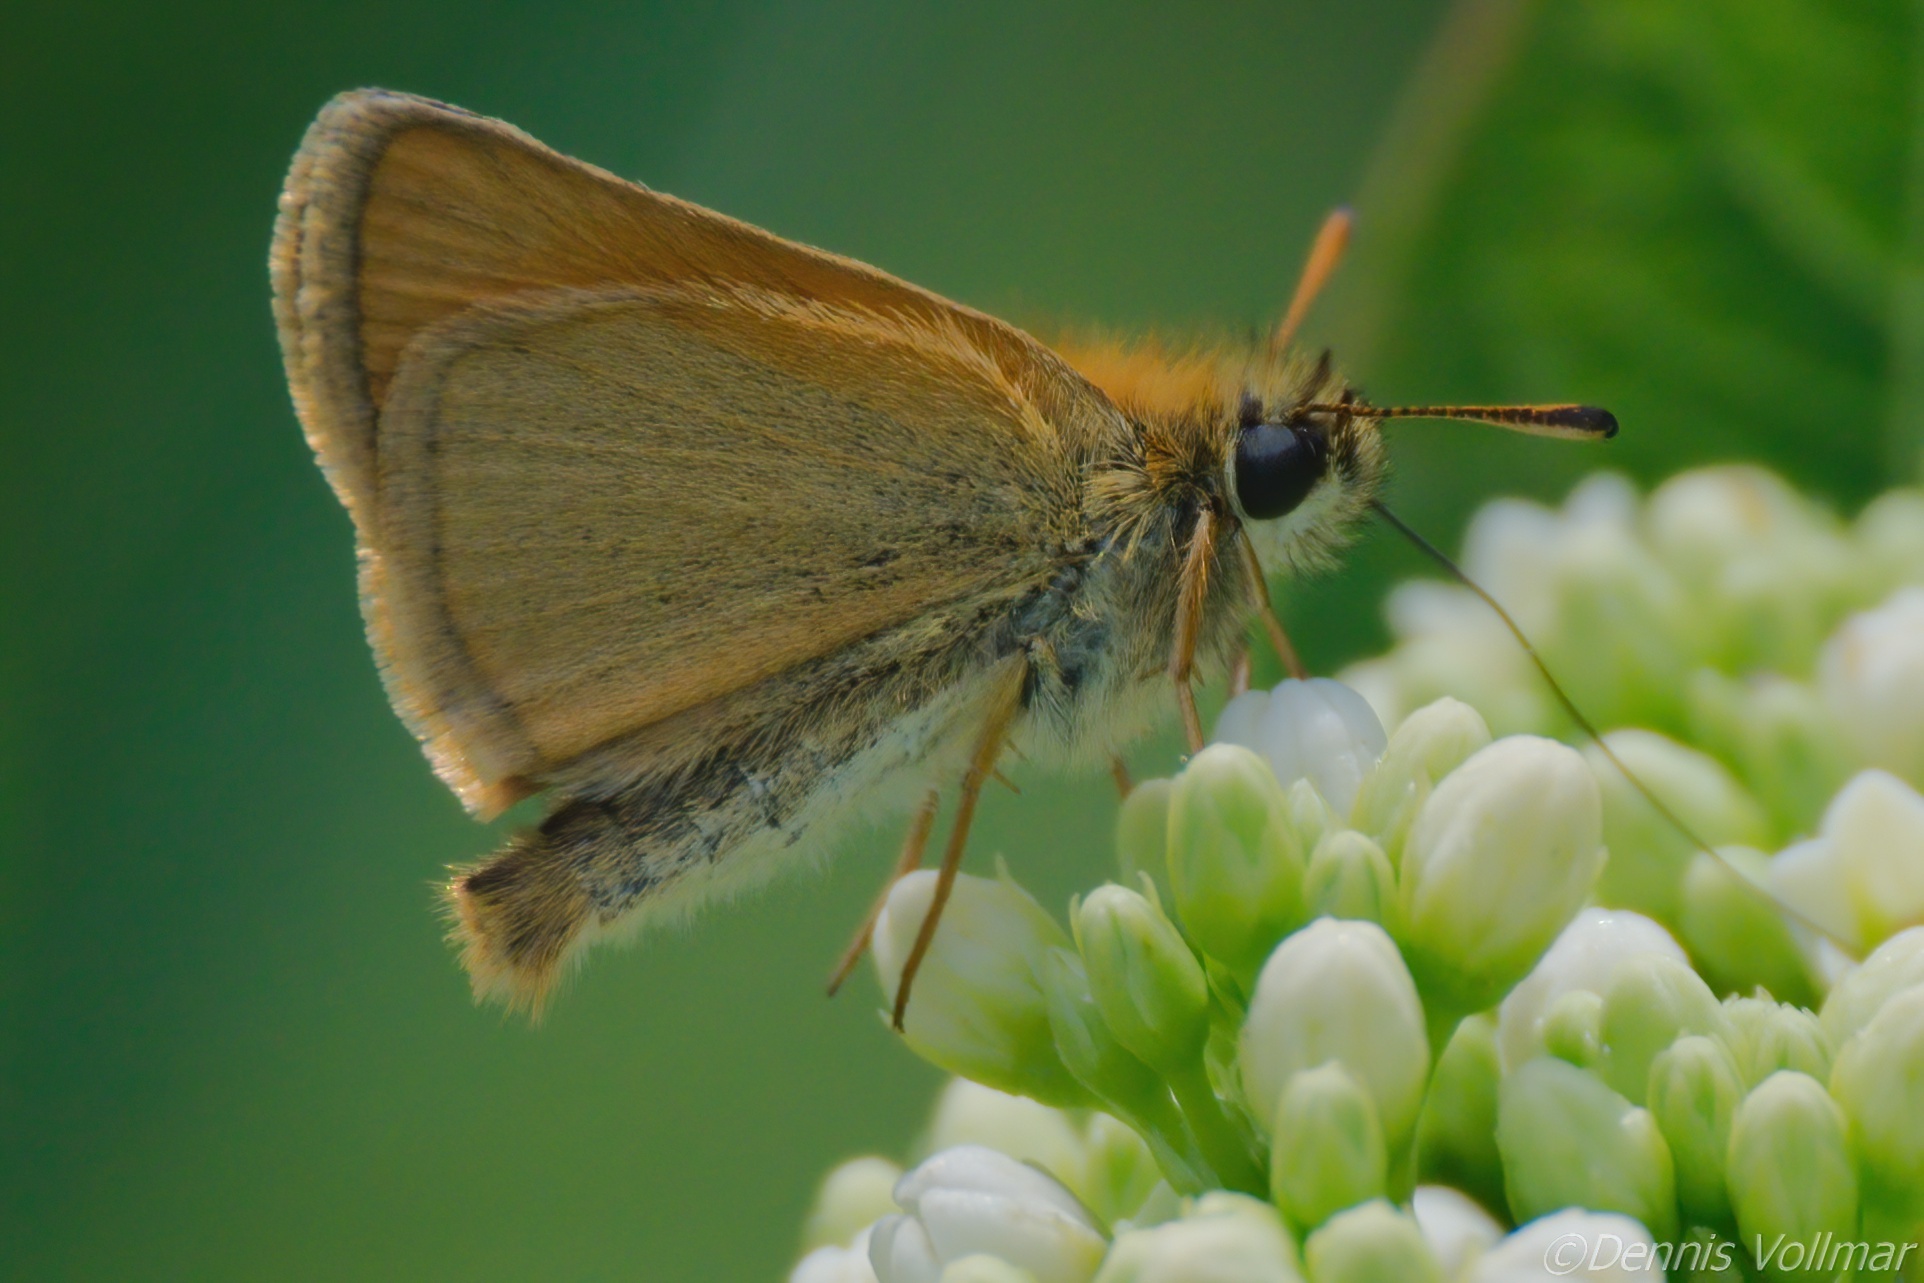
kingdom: Animalia
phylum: Arthropoda
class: Insecta
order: Lepidoptera
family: Hesperiidae
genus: Thymelicus
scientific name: Thymelicus lineola
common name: Essex skipper
